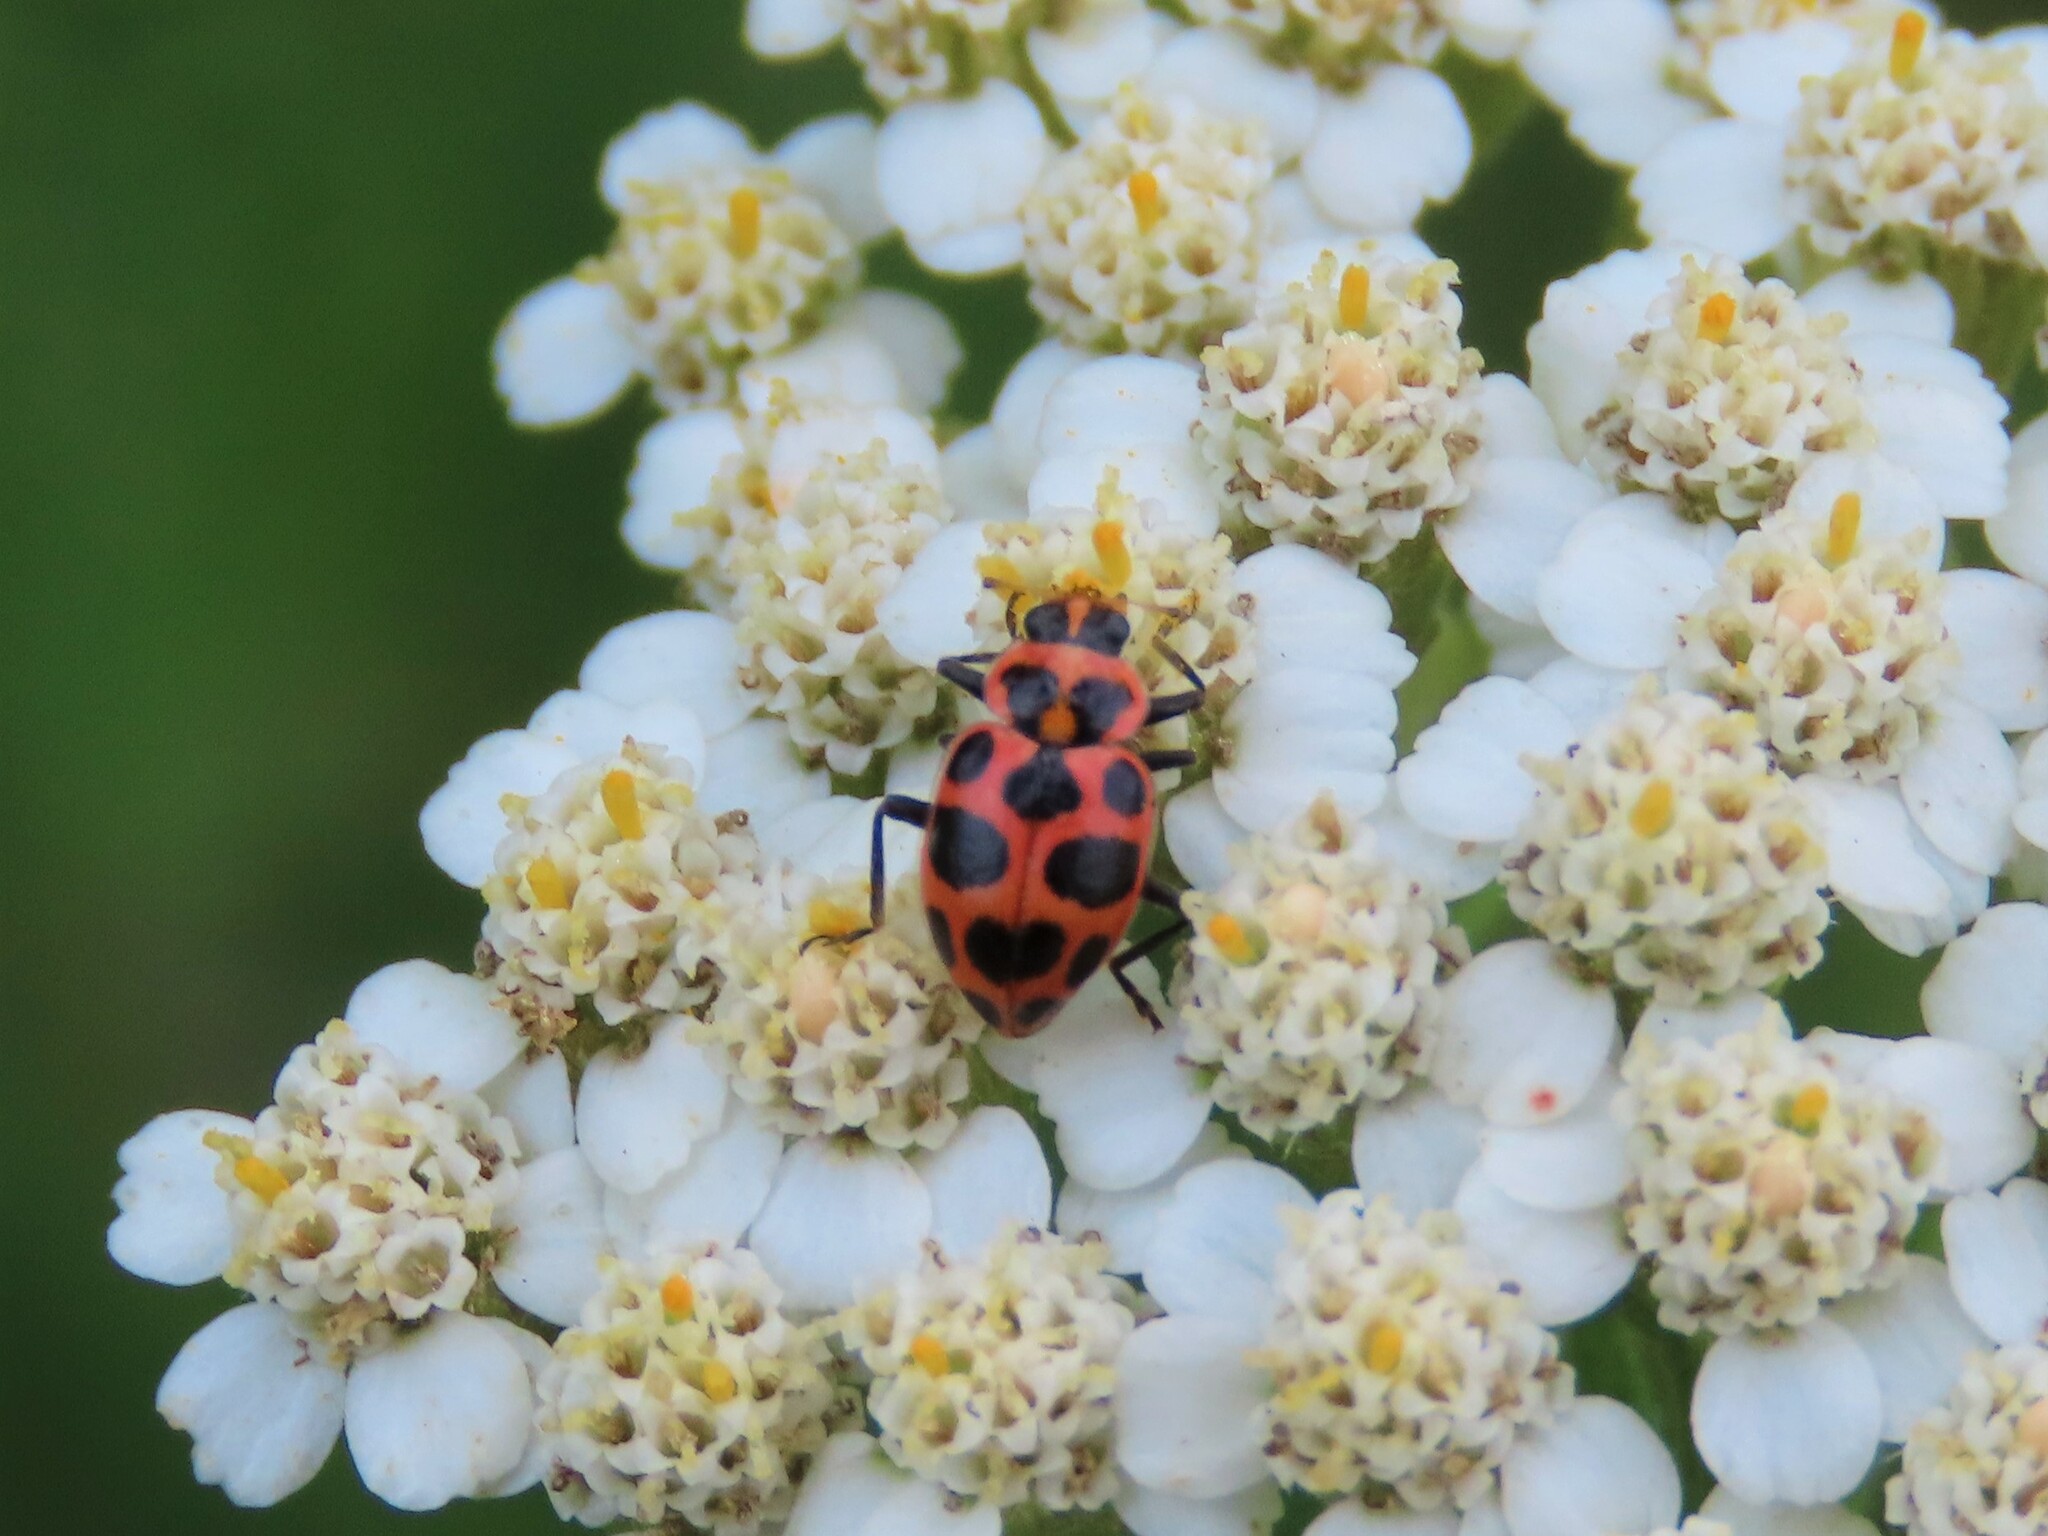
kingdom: Animalia
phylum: Arthropoda
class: Insecta
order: Coleoptera
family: Coccinellidae
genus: Coleomegilla
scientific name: Coleomegilla maculata
